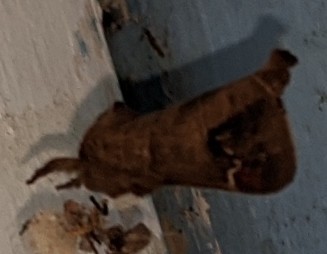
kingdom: Animalia
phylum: Arthropoda
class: Insecta
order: Lepidoptera
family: Notodontidae
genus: Clostera
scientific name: Clostera albosigma
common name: Sigmoid prominent
